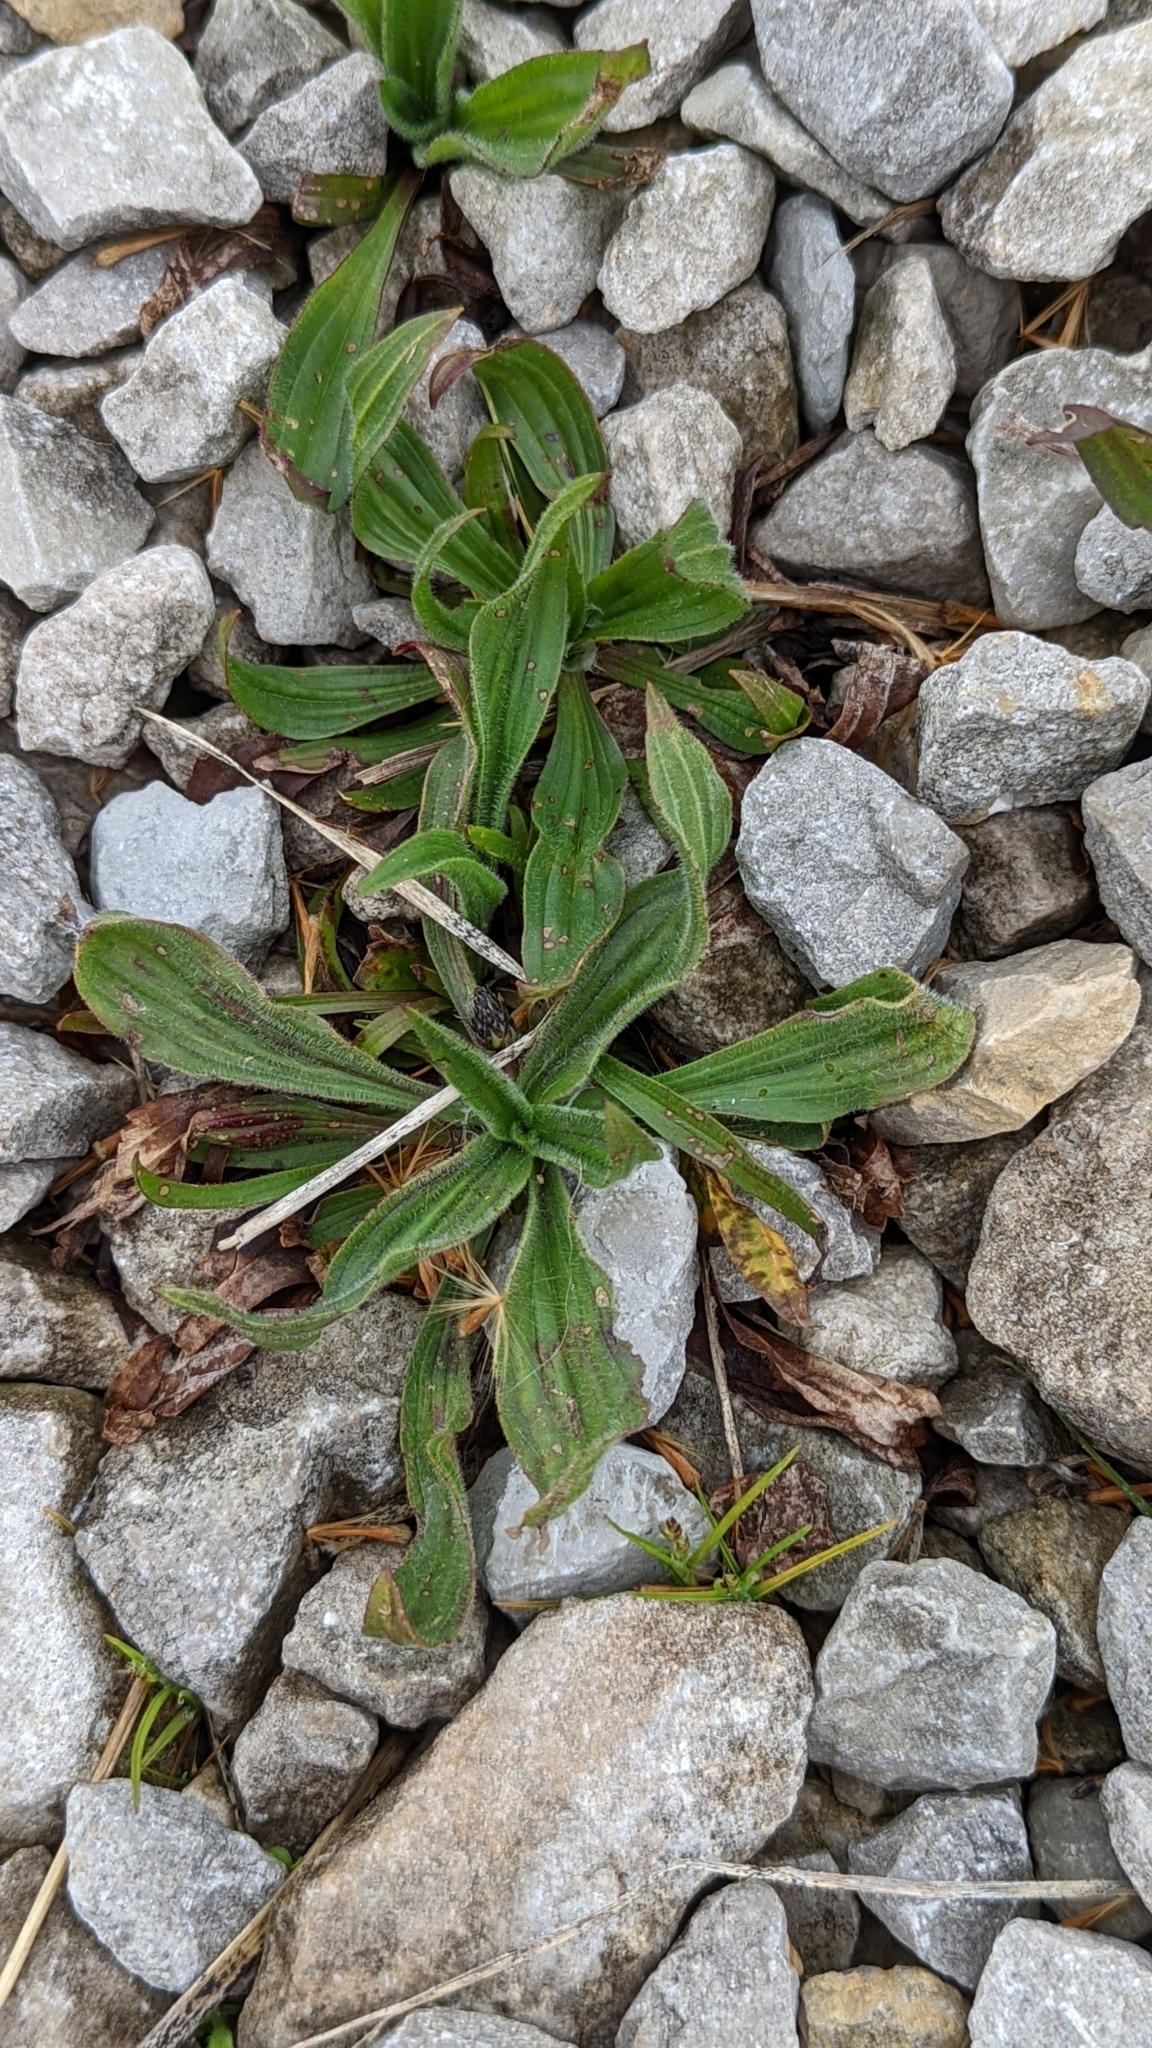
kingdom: Plantae
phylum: Tracheophyta
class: Magnoliopsida
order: Lamiales
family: Plantaginaceae
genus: Plantago
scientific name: Plantago lanceolata
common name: Ribwort plantain
